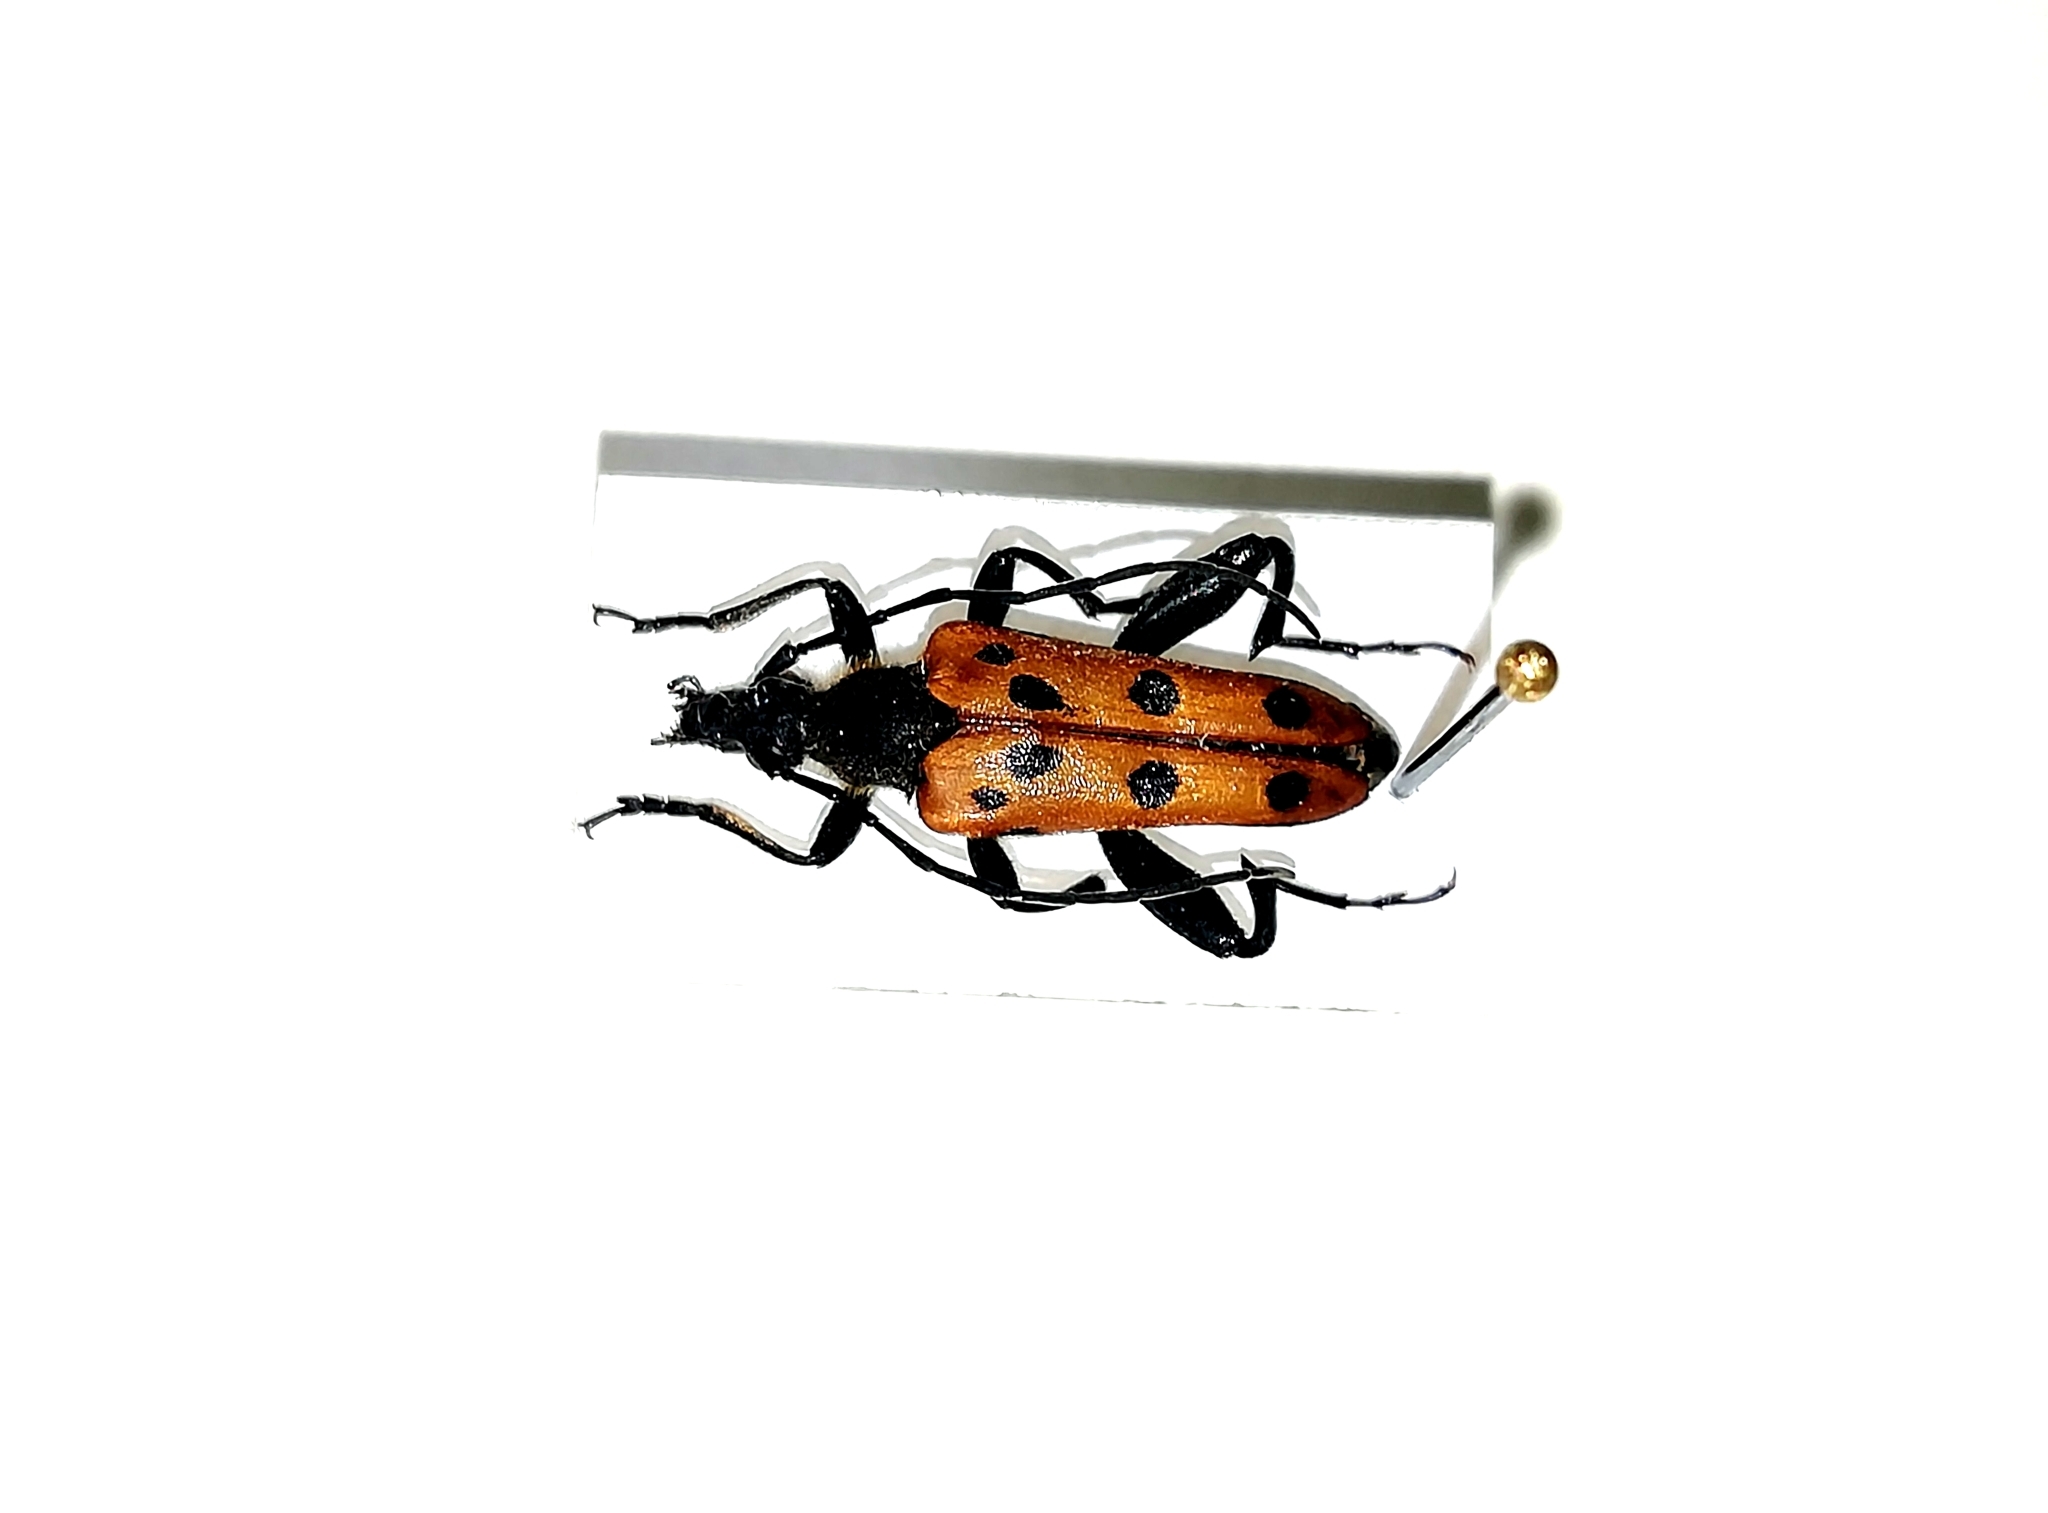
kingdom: Animalia
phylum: Arthropoda
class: Insecta
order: Coleoptera
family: Cerambycidae
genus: Oedecnema
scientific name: Oedecnema gebleri
